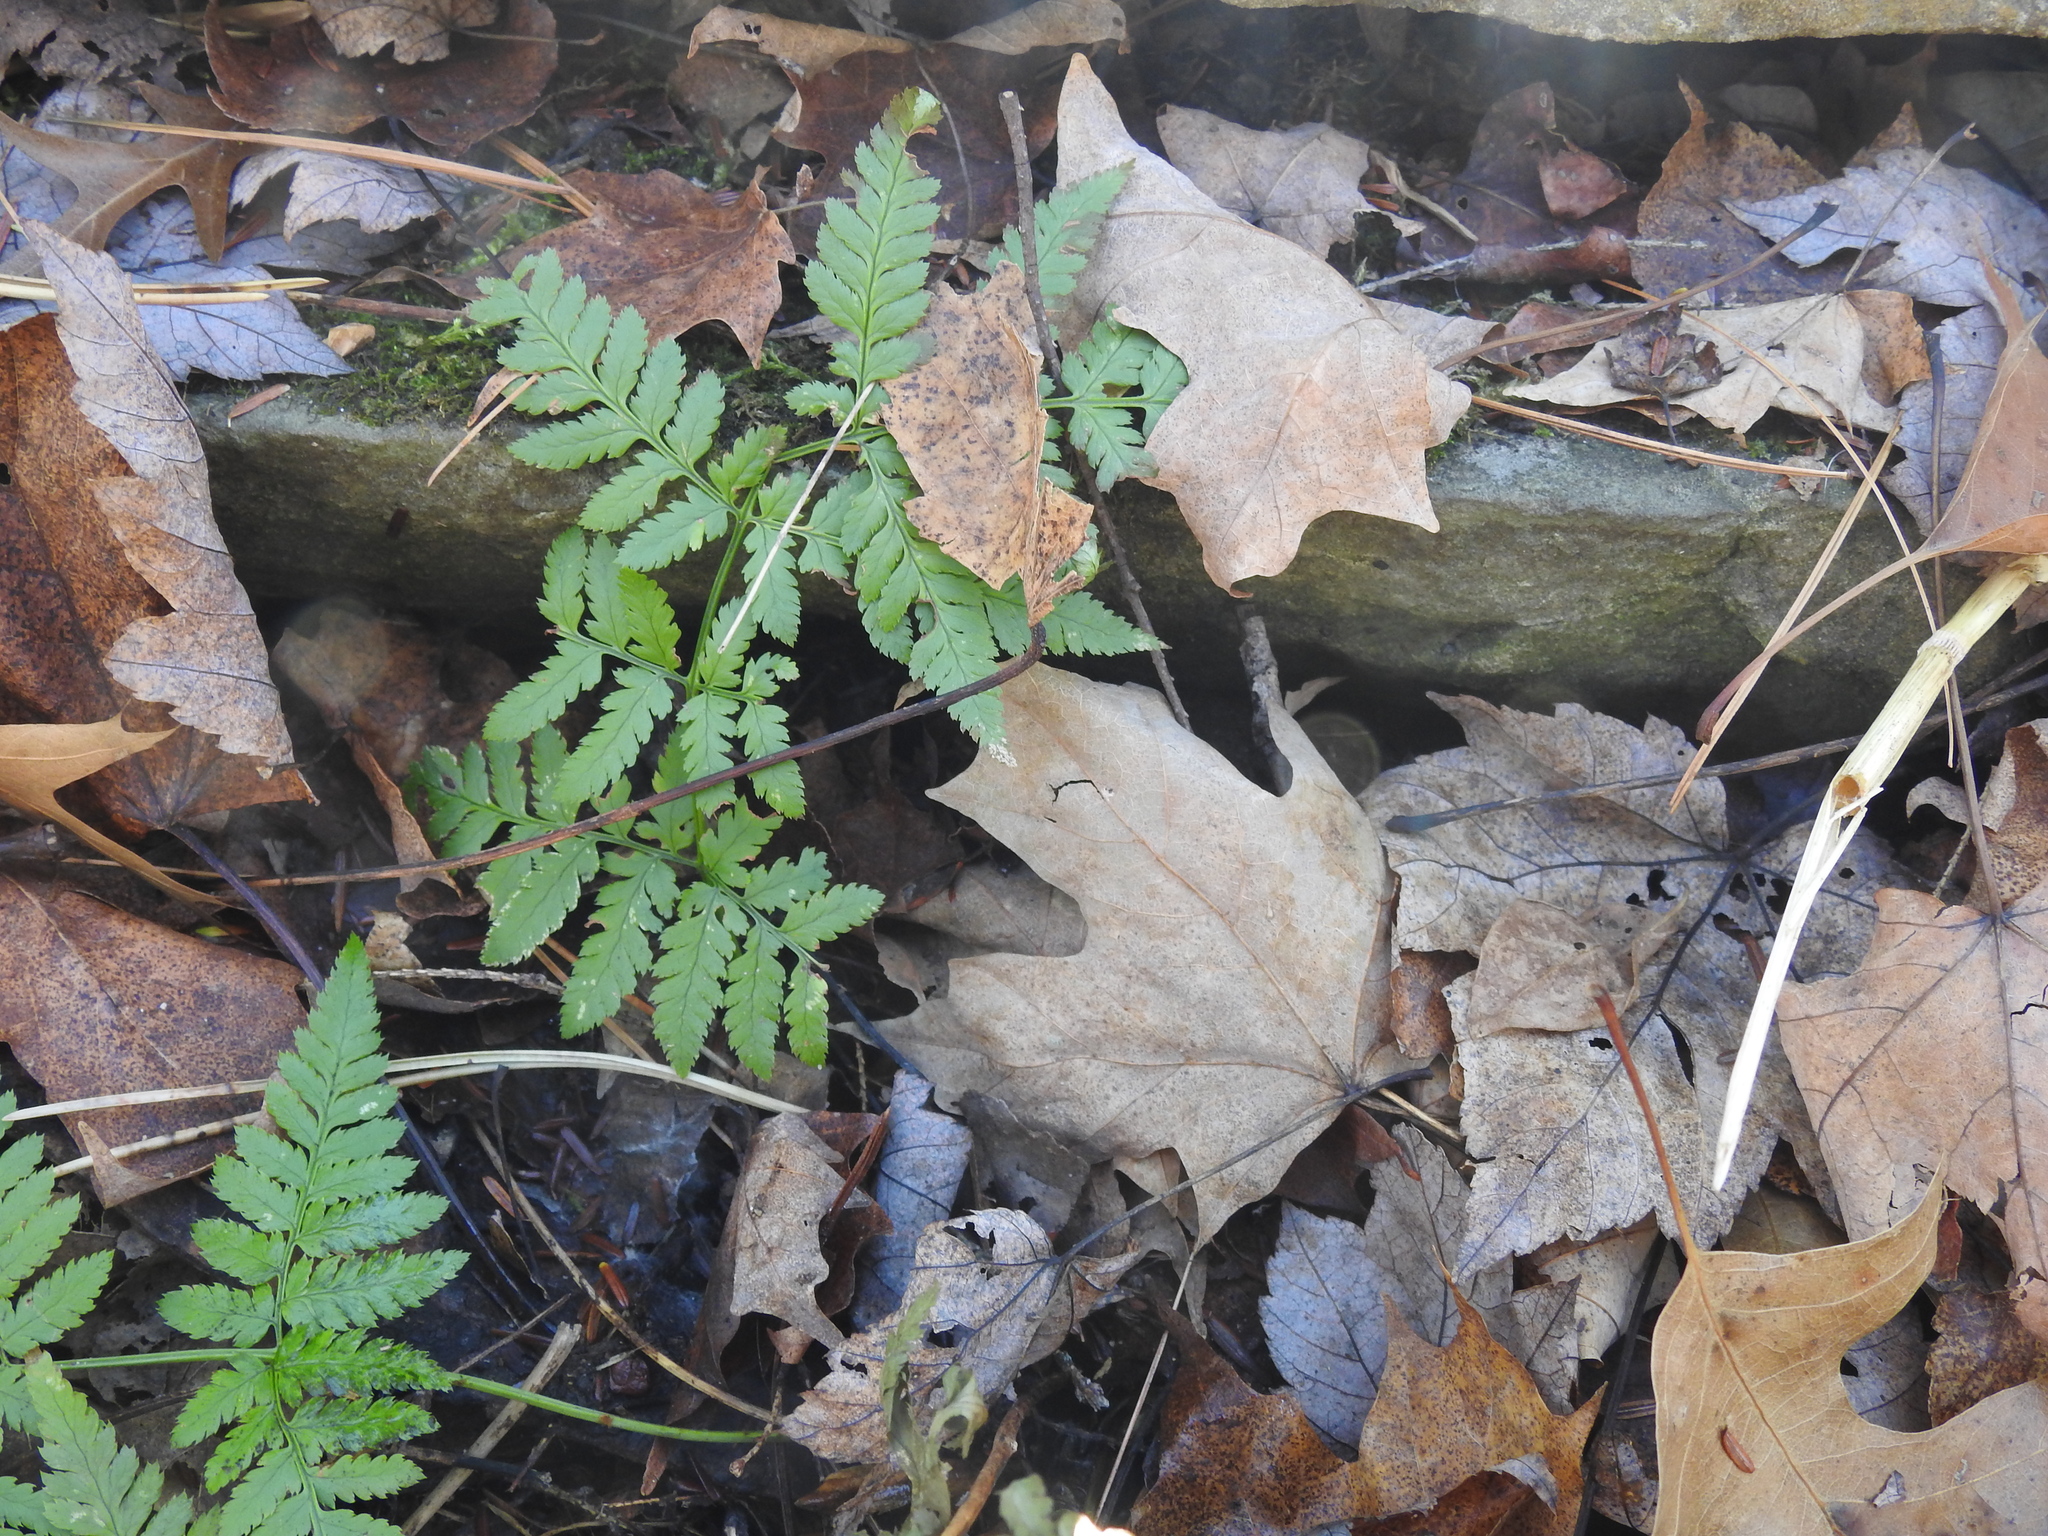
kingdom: Plantae
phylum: Tracheophyta
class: Polypodiopsida
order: Polypodiales
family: Dryopteridaceae
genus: Dryopteris
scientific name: Dryopteris carthusiana
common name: Narrow buckler-fern
